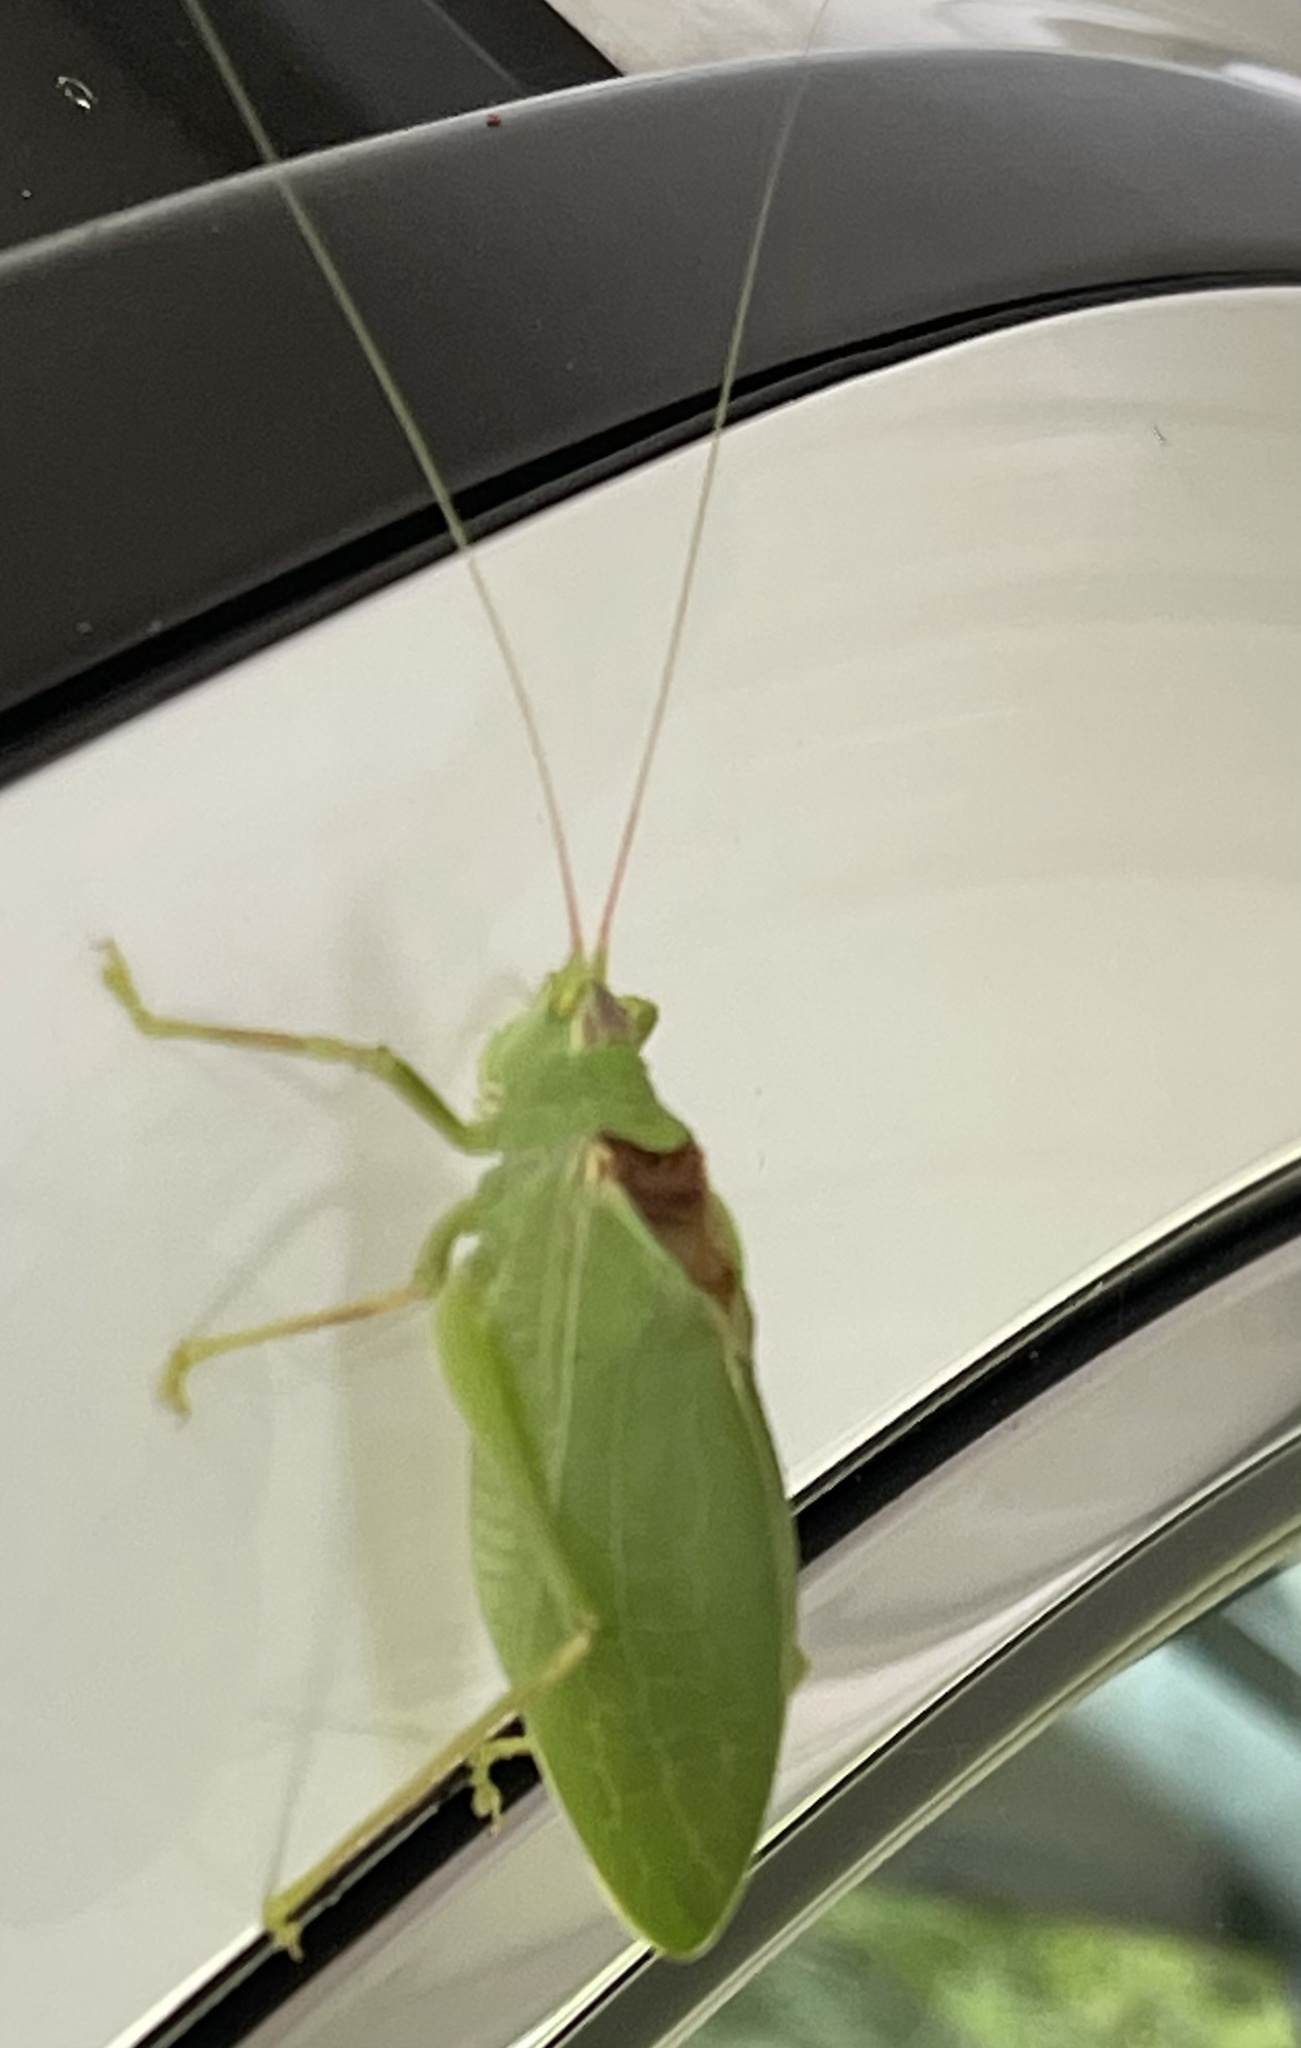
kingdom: Animalia
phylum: Arthropoda
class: Insecta
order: Orthoptera
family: Tettigoniidae
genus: Pterophylla
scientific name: Pterophylla camellifolia
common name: Common true katydid
